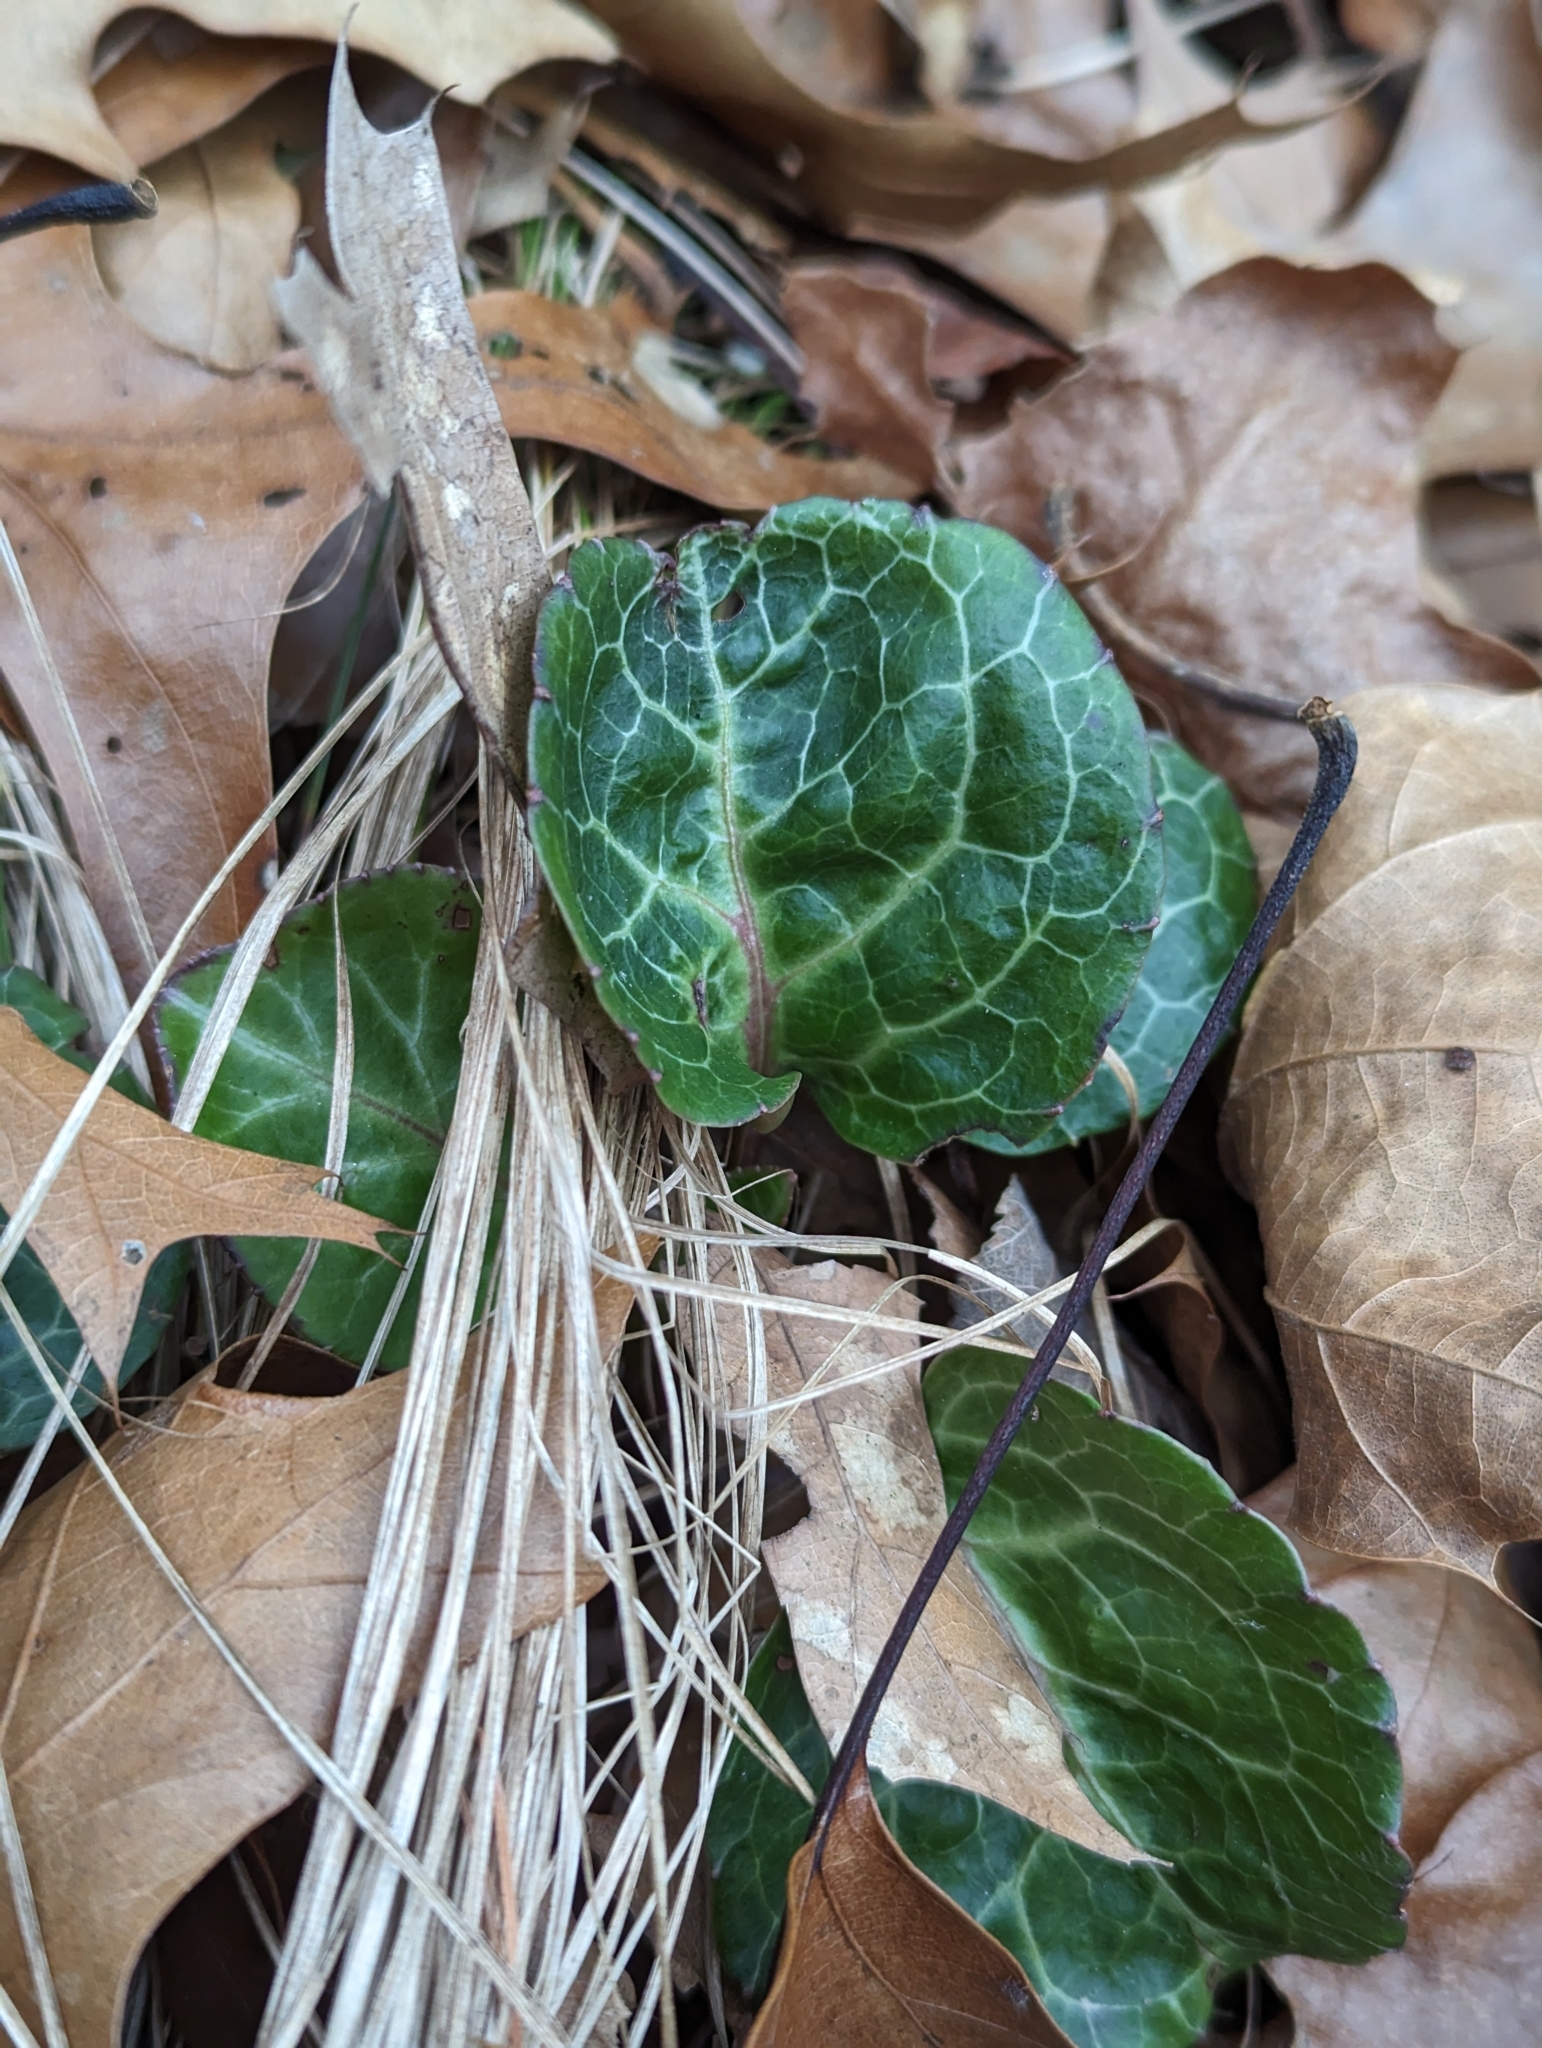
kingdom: Plantae
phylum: Tracheophyta
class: Magnoliopsida
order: Ericales
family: Ericaceae
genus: Pyrola
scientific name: Pyrola americana
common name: American wintergreen
